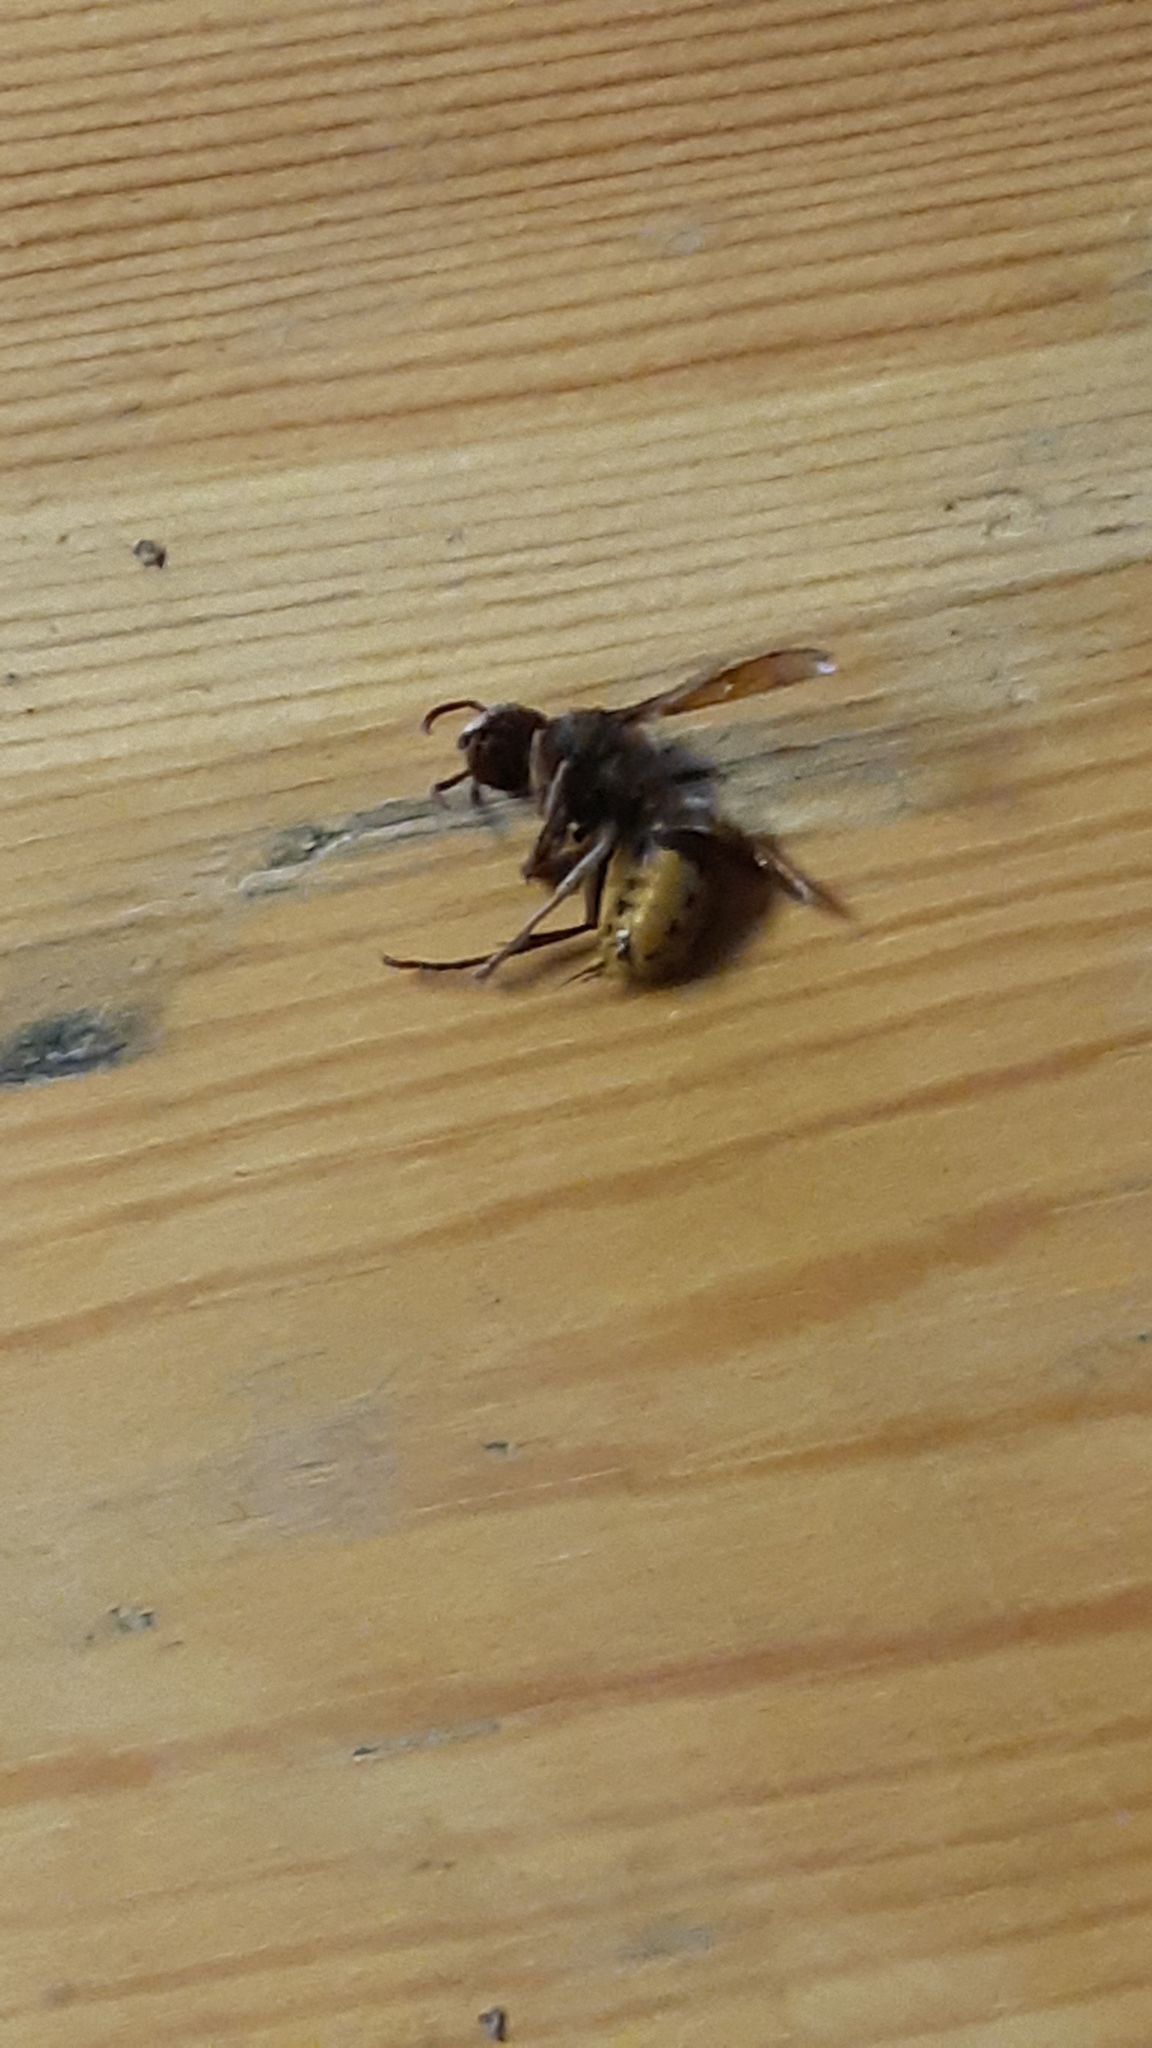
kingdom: Animalia
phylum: Arthropoda
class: Insecta
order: Hymenoptera
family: Vespidae
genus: Vespa
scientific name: Vespa crabro
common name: Hornet
